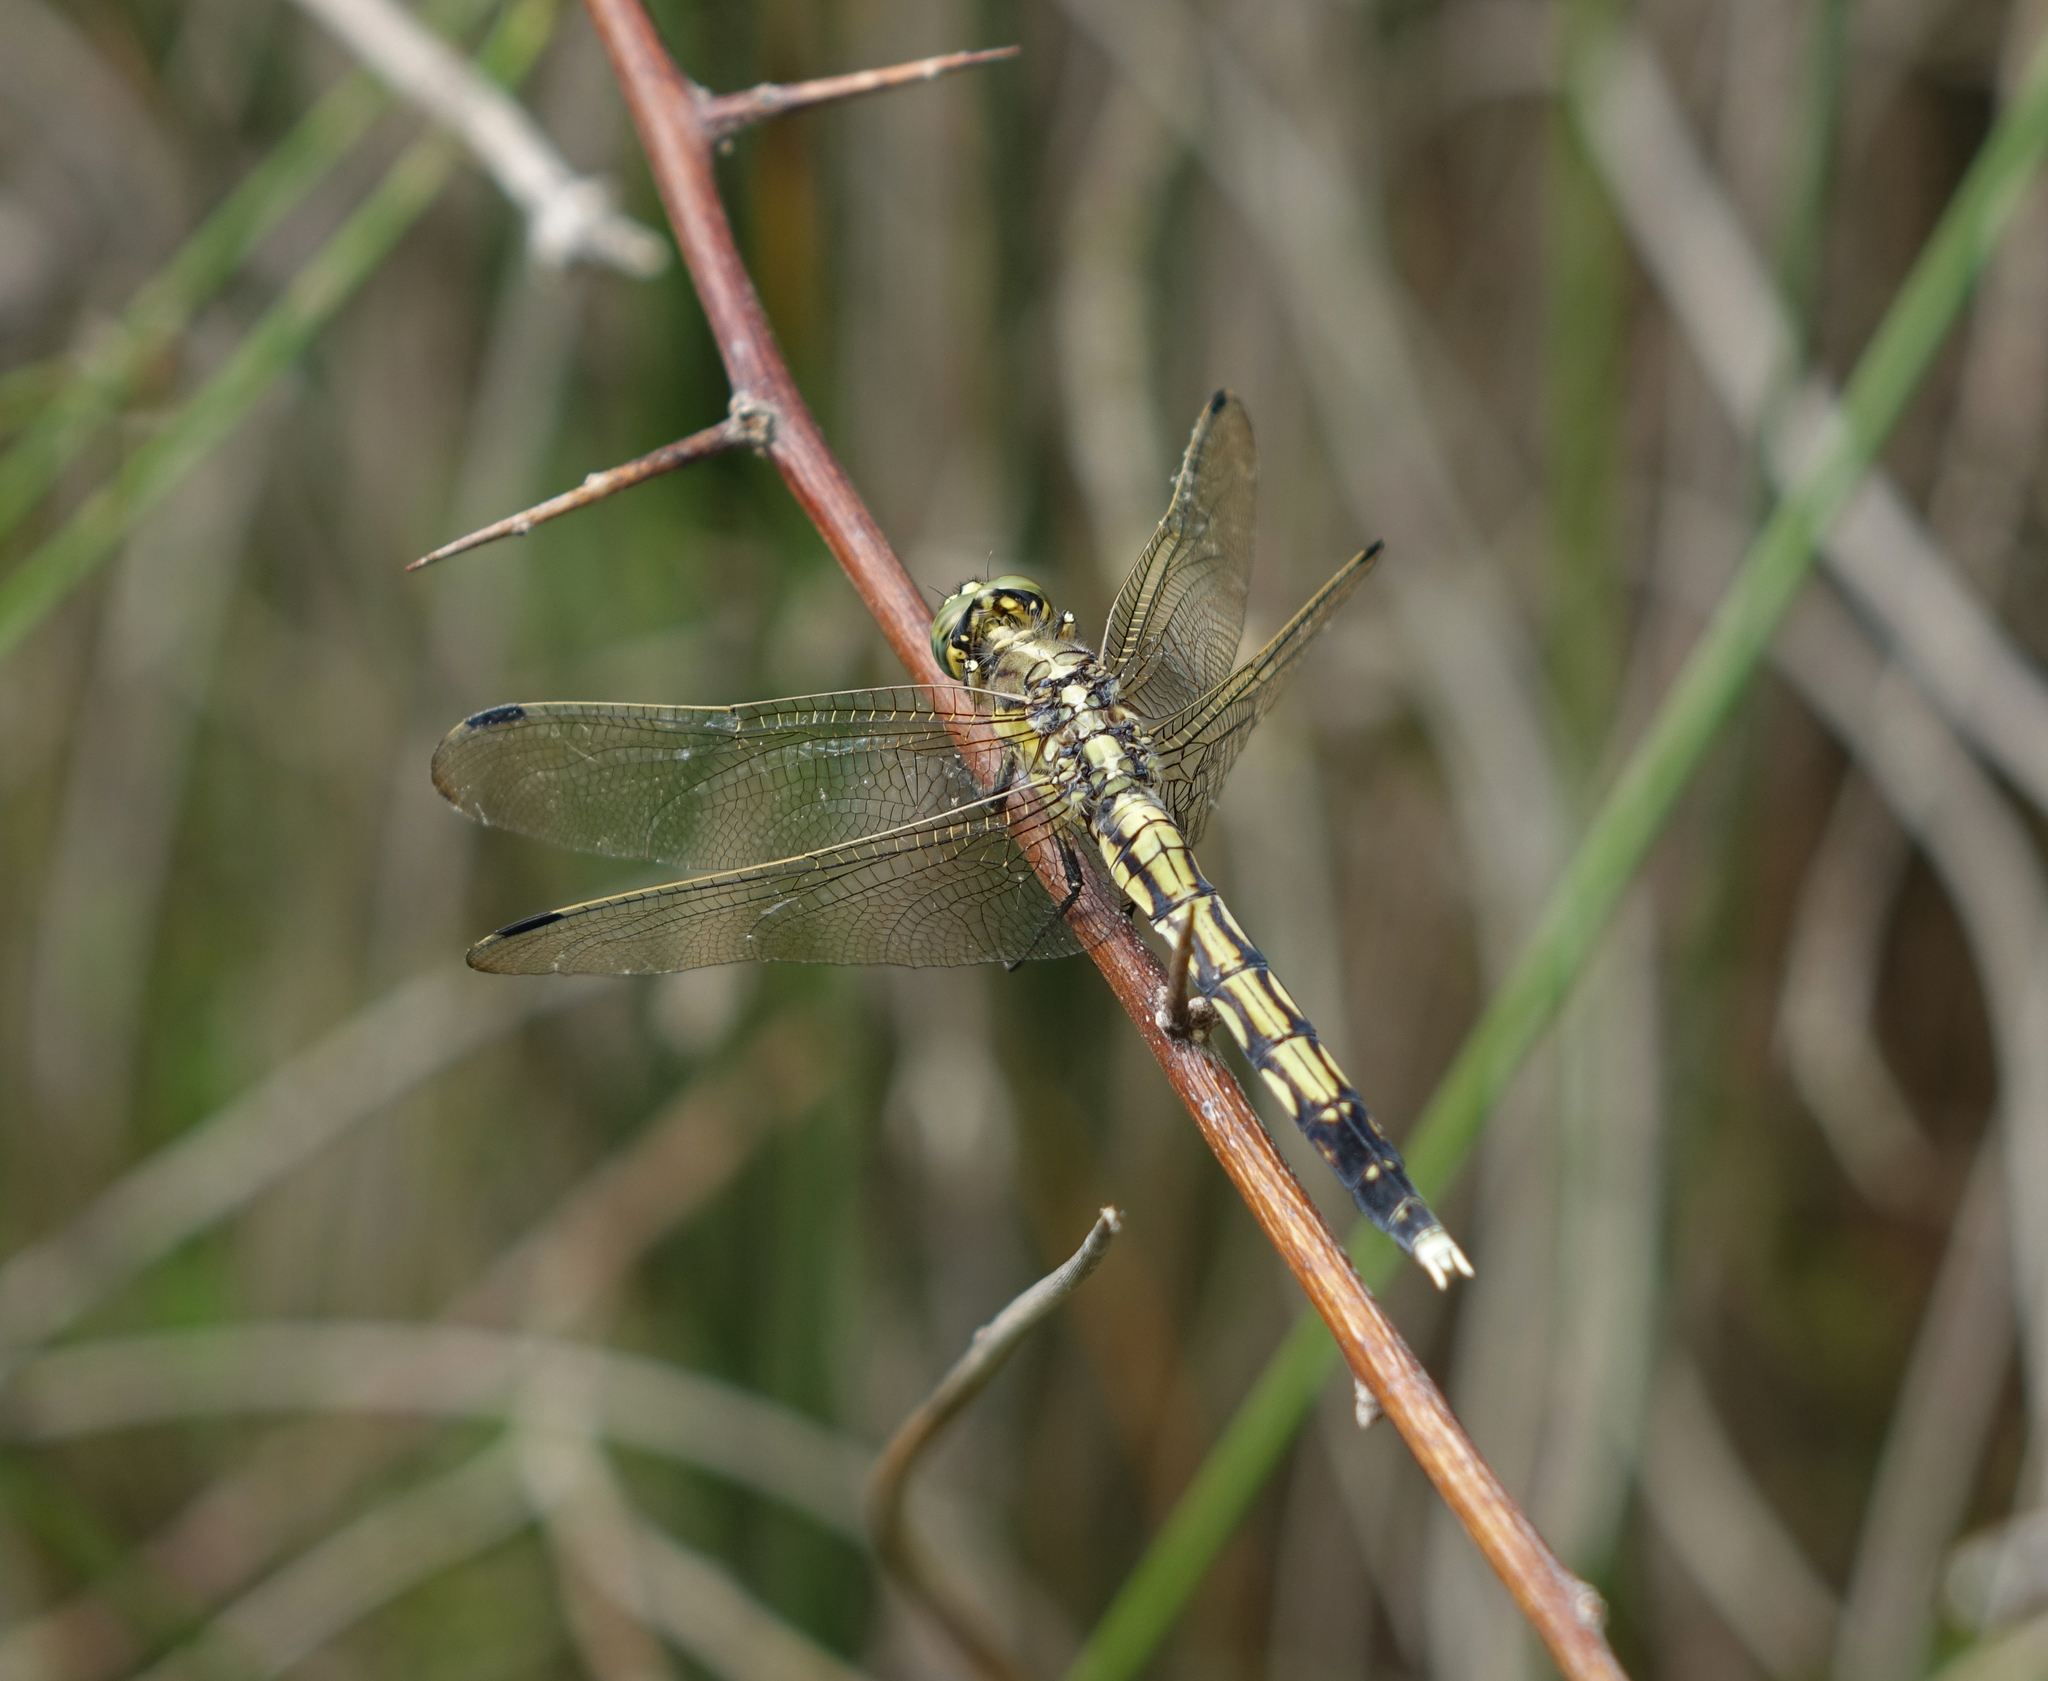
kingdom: Animalia
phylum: Arthropoda
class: Insecta
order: Odonata
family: Libellulidae
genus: Orthetrum
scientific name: Orthetrum albistylum
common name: White-tailed skimmer
